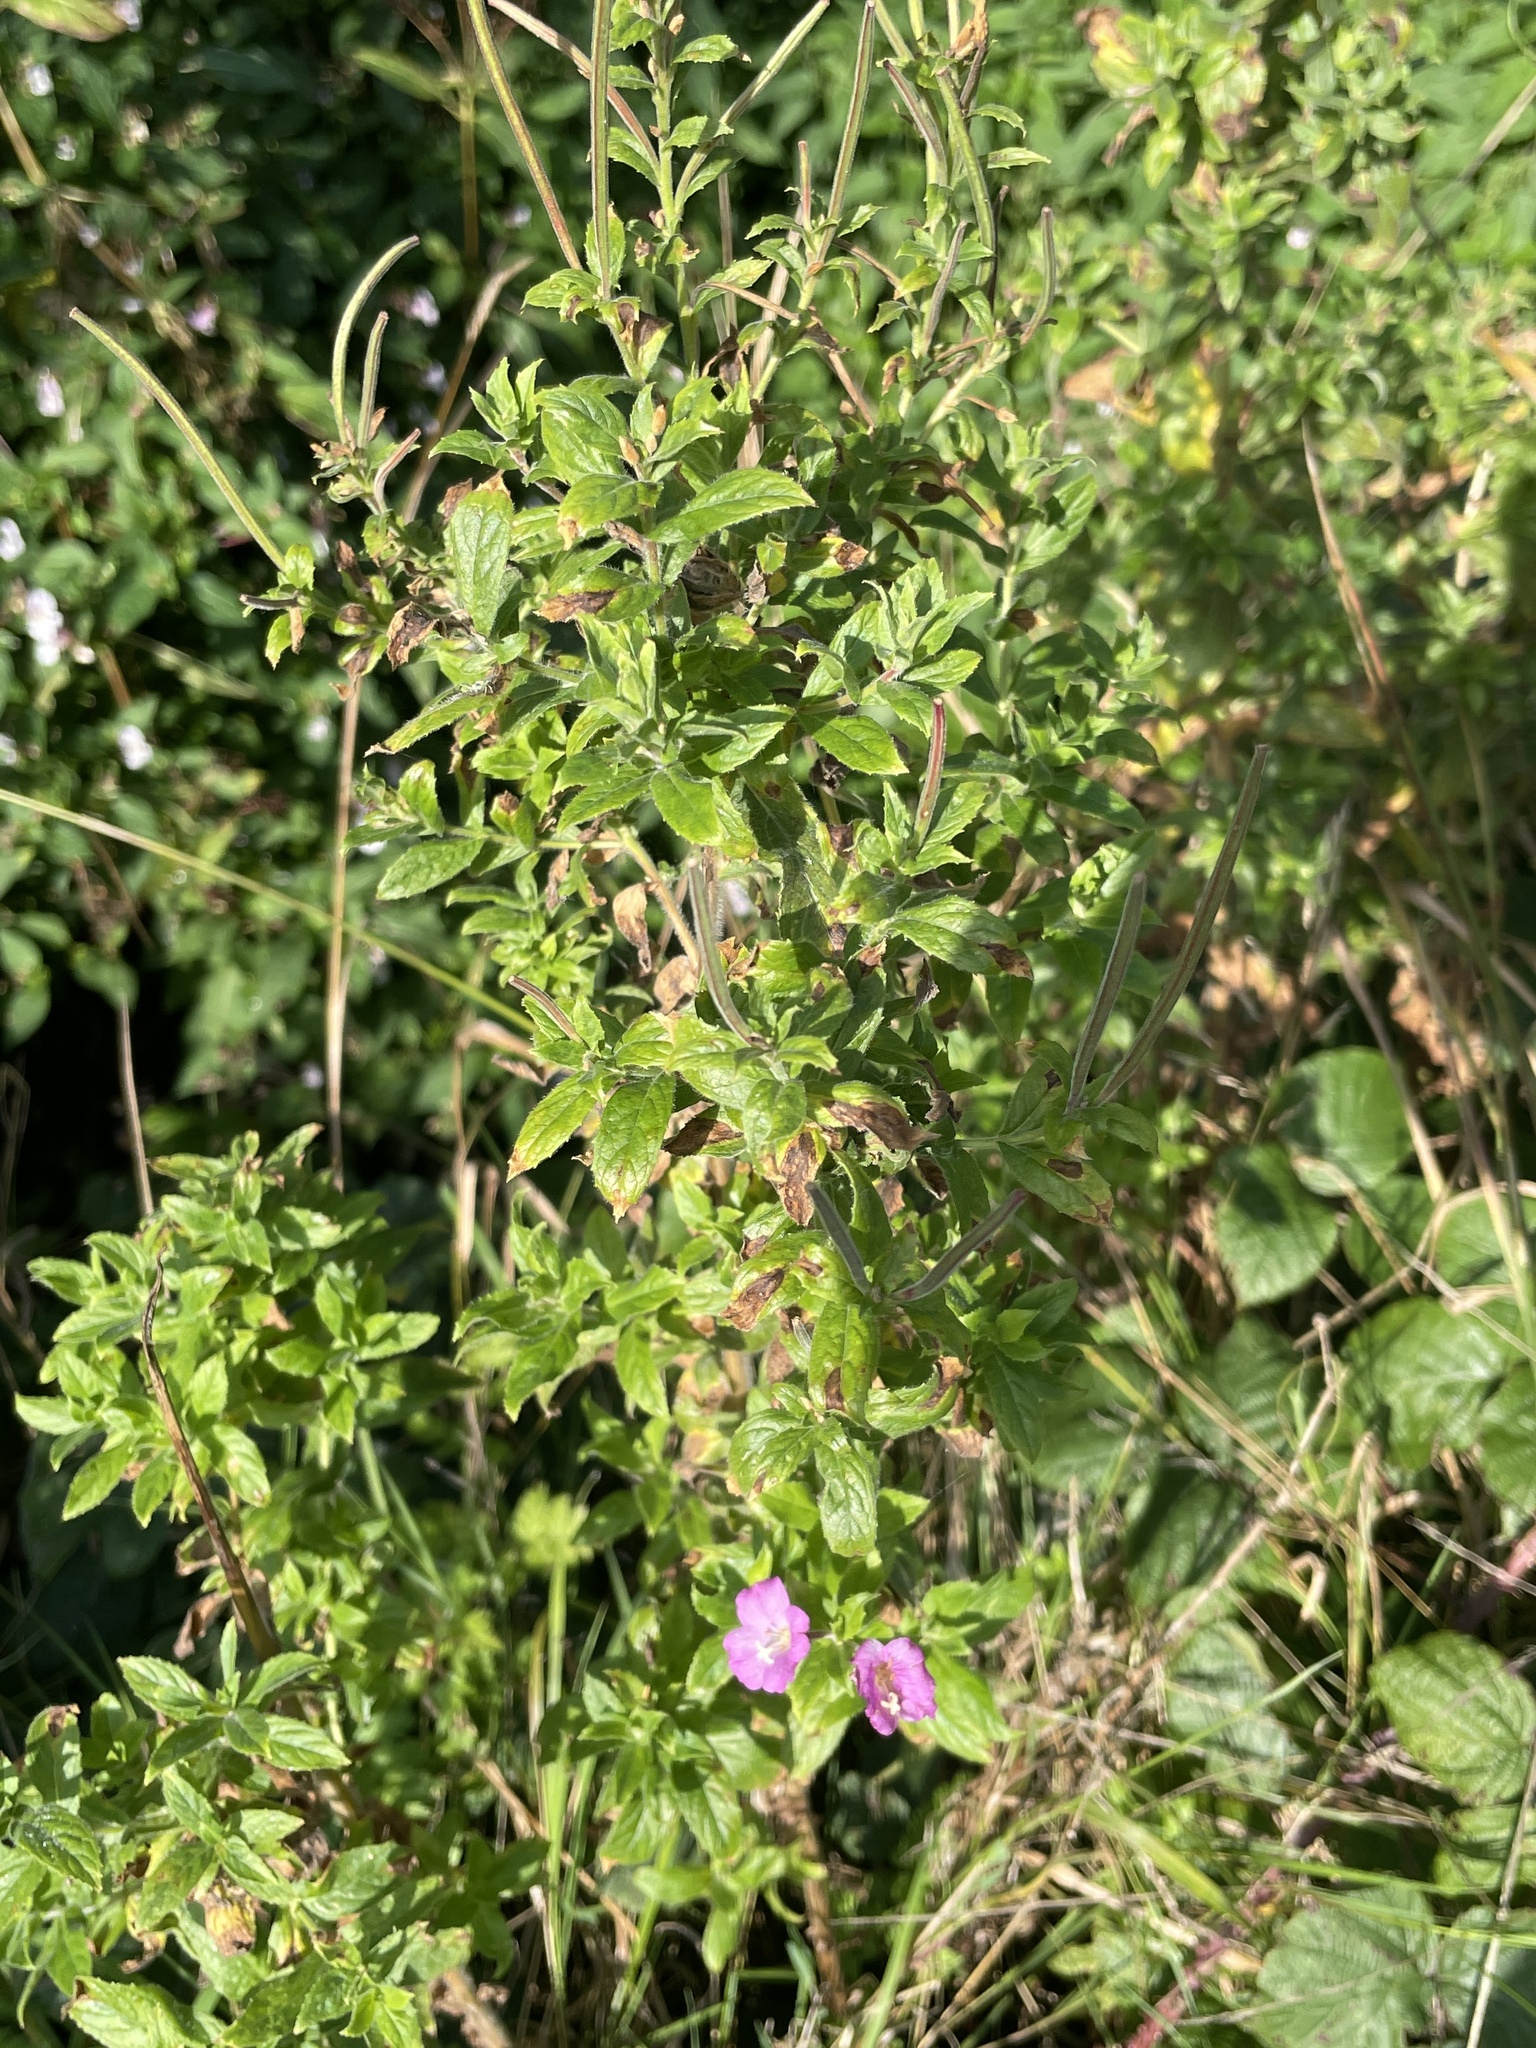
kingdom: Plantae
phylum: Tracheophyta
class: Magnoliopsida
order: Myrtales
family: Onagraceae
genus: Epilobium
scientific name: Epilobium hirsutum
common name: Great willowherb
